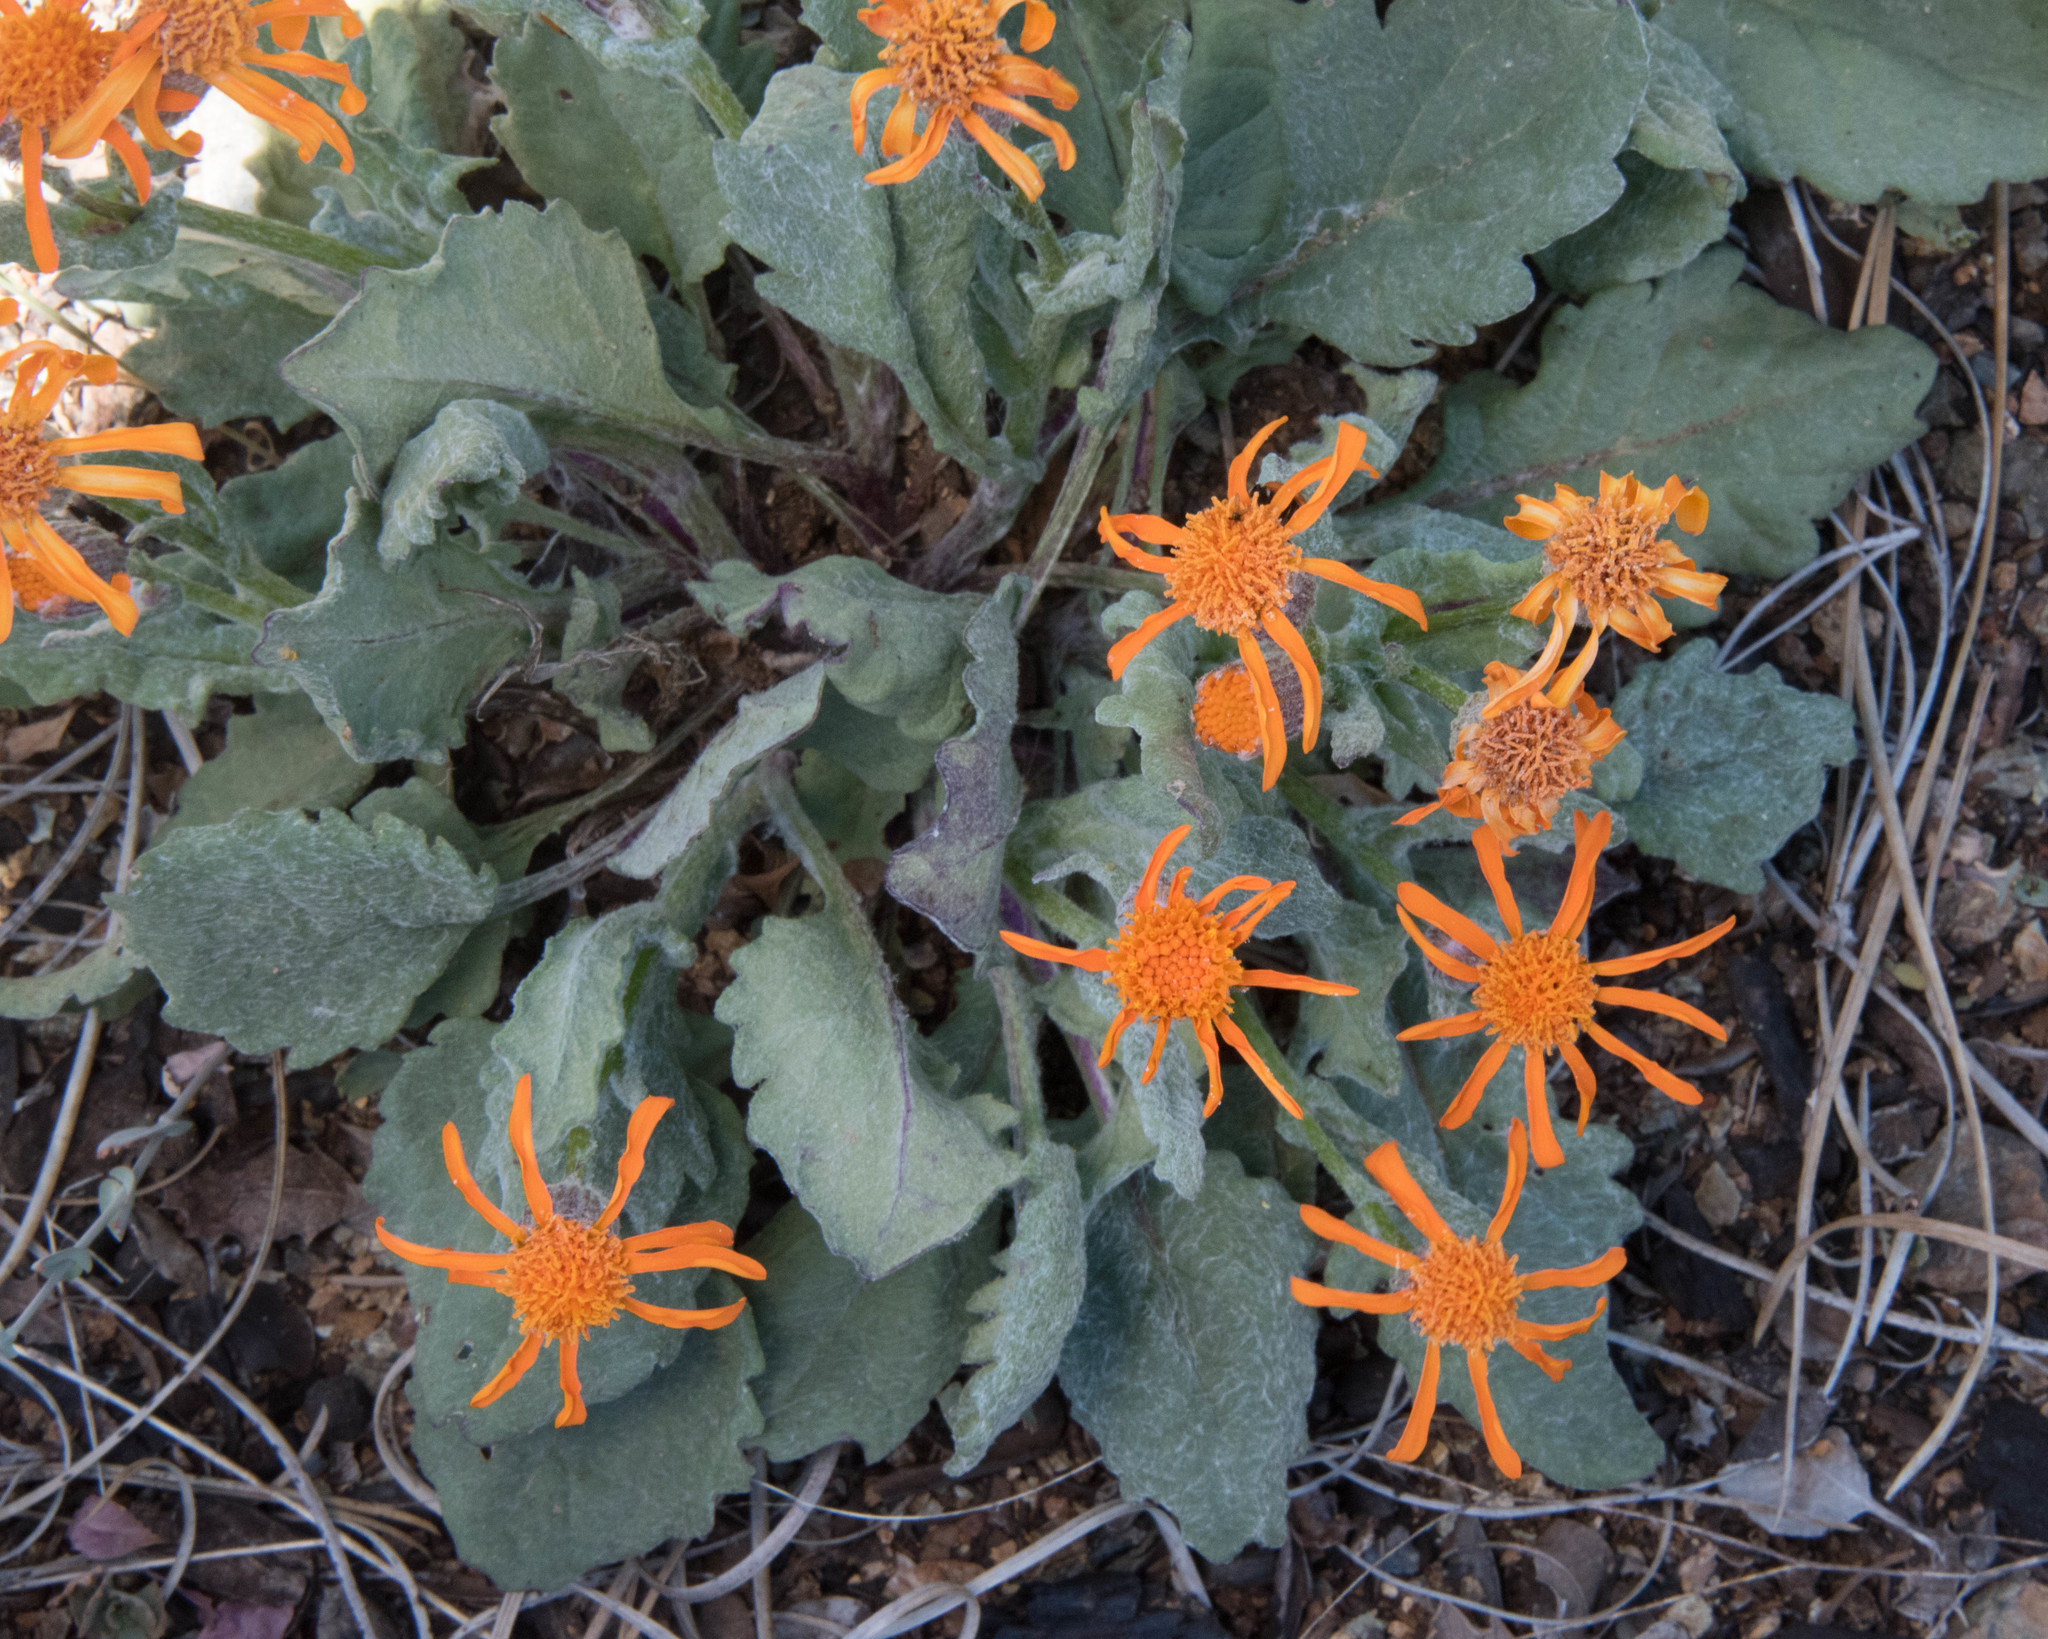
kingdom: Plantae
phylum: Tracheophyta
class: Magnoliopsida
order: Asterales
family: Asteraceae
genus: Packera
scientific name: Packera greenei
